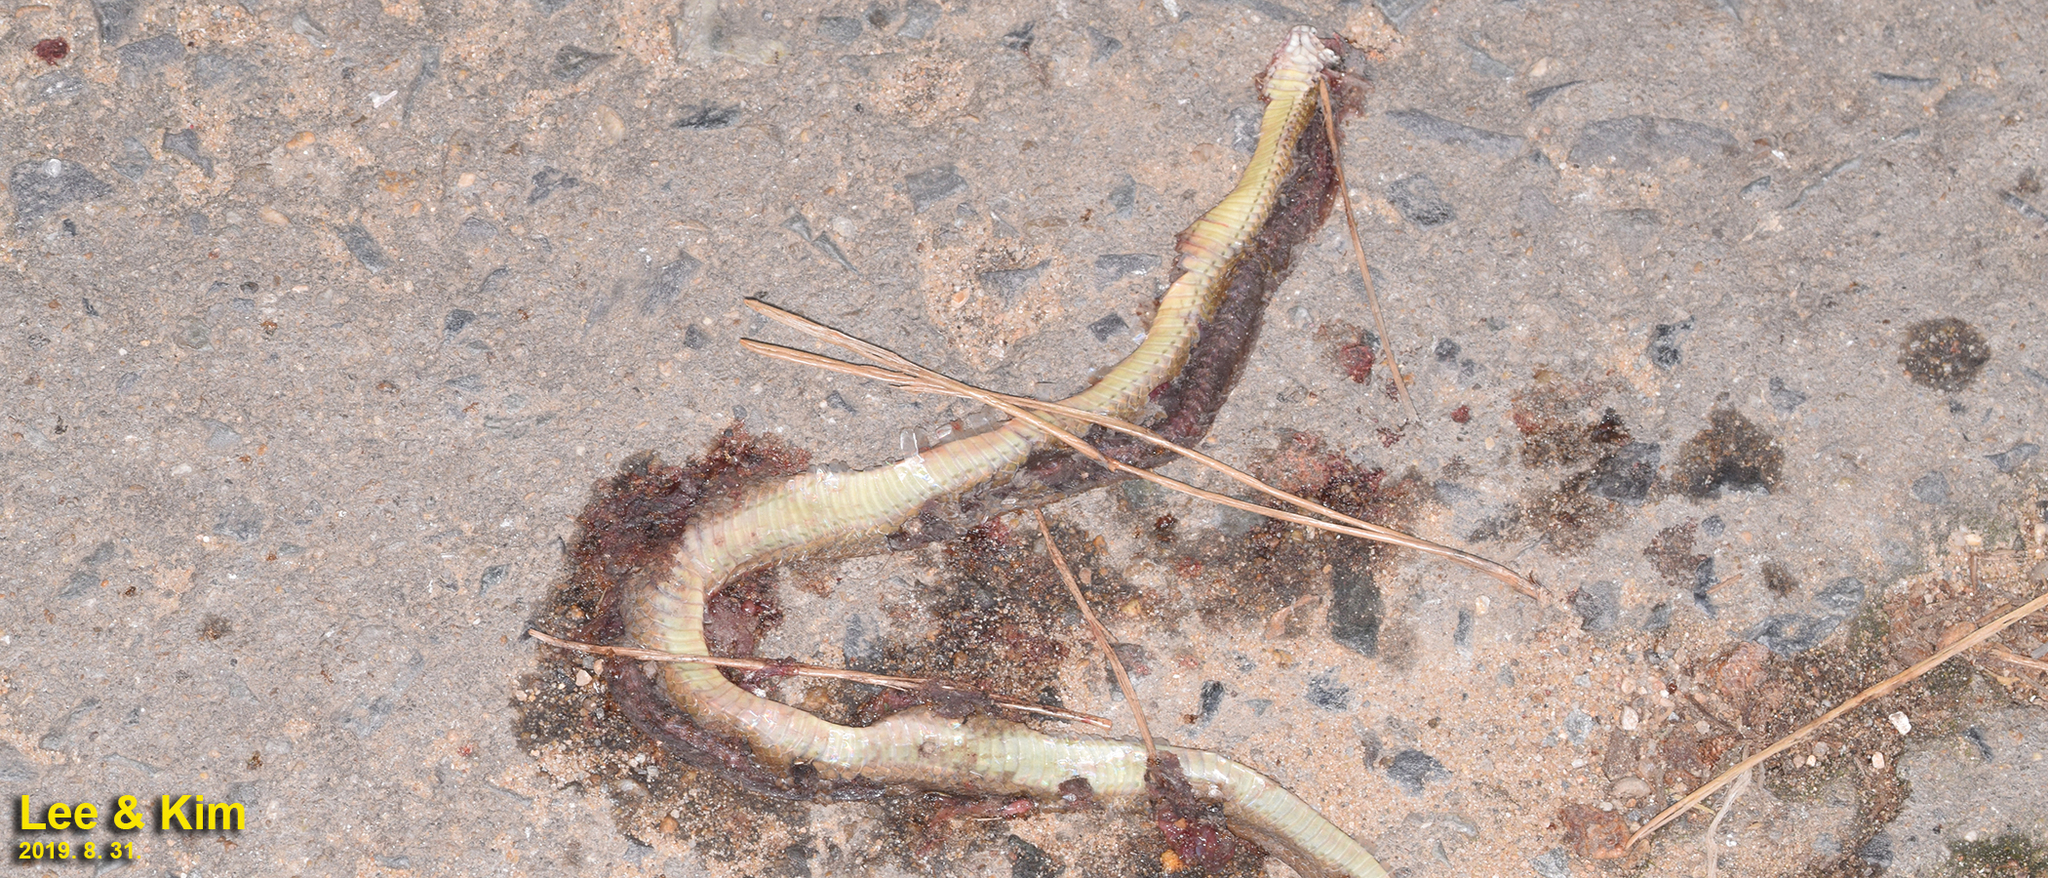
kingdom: Animalia
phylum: Chordata
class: Squamata
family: Colubridae
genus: Hebius
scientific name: Hebius vibakari
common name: Japanese keelback
